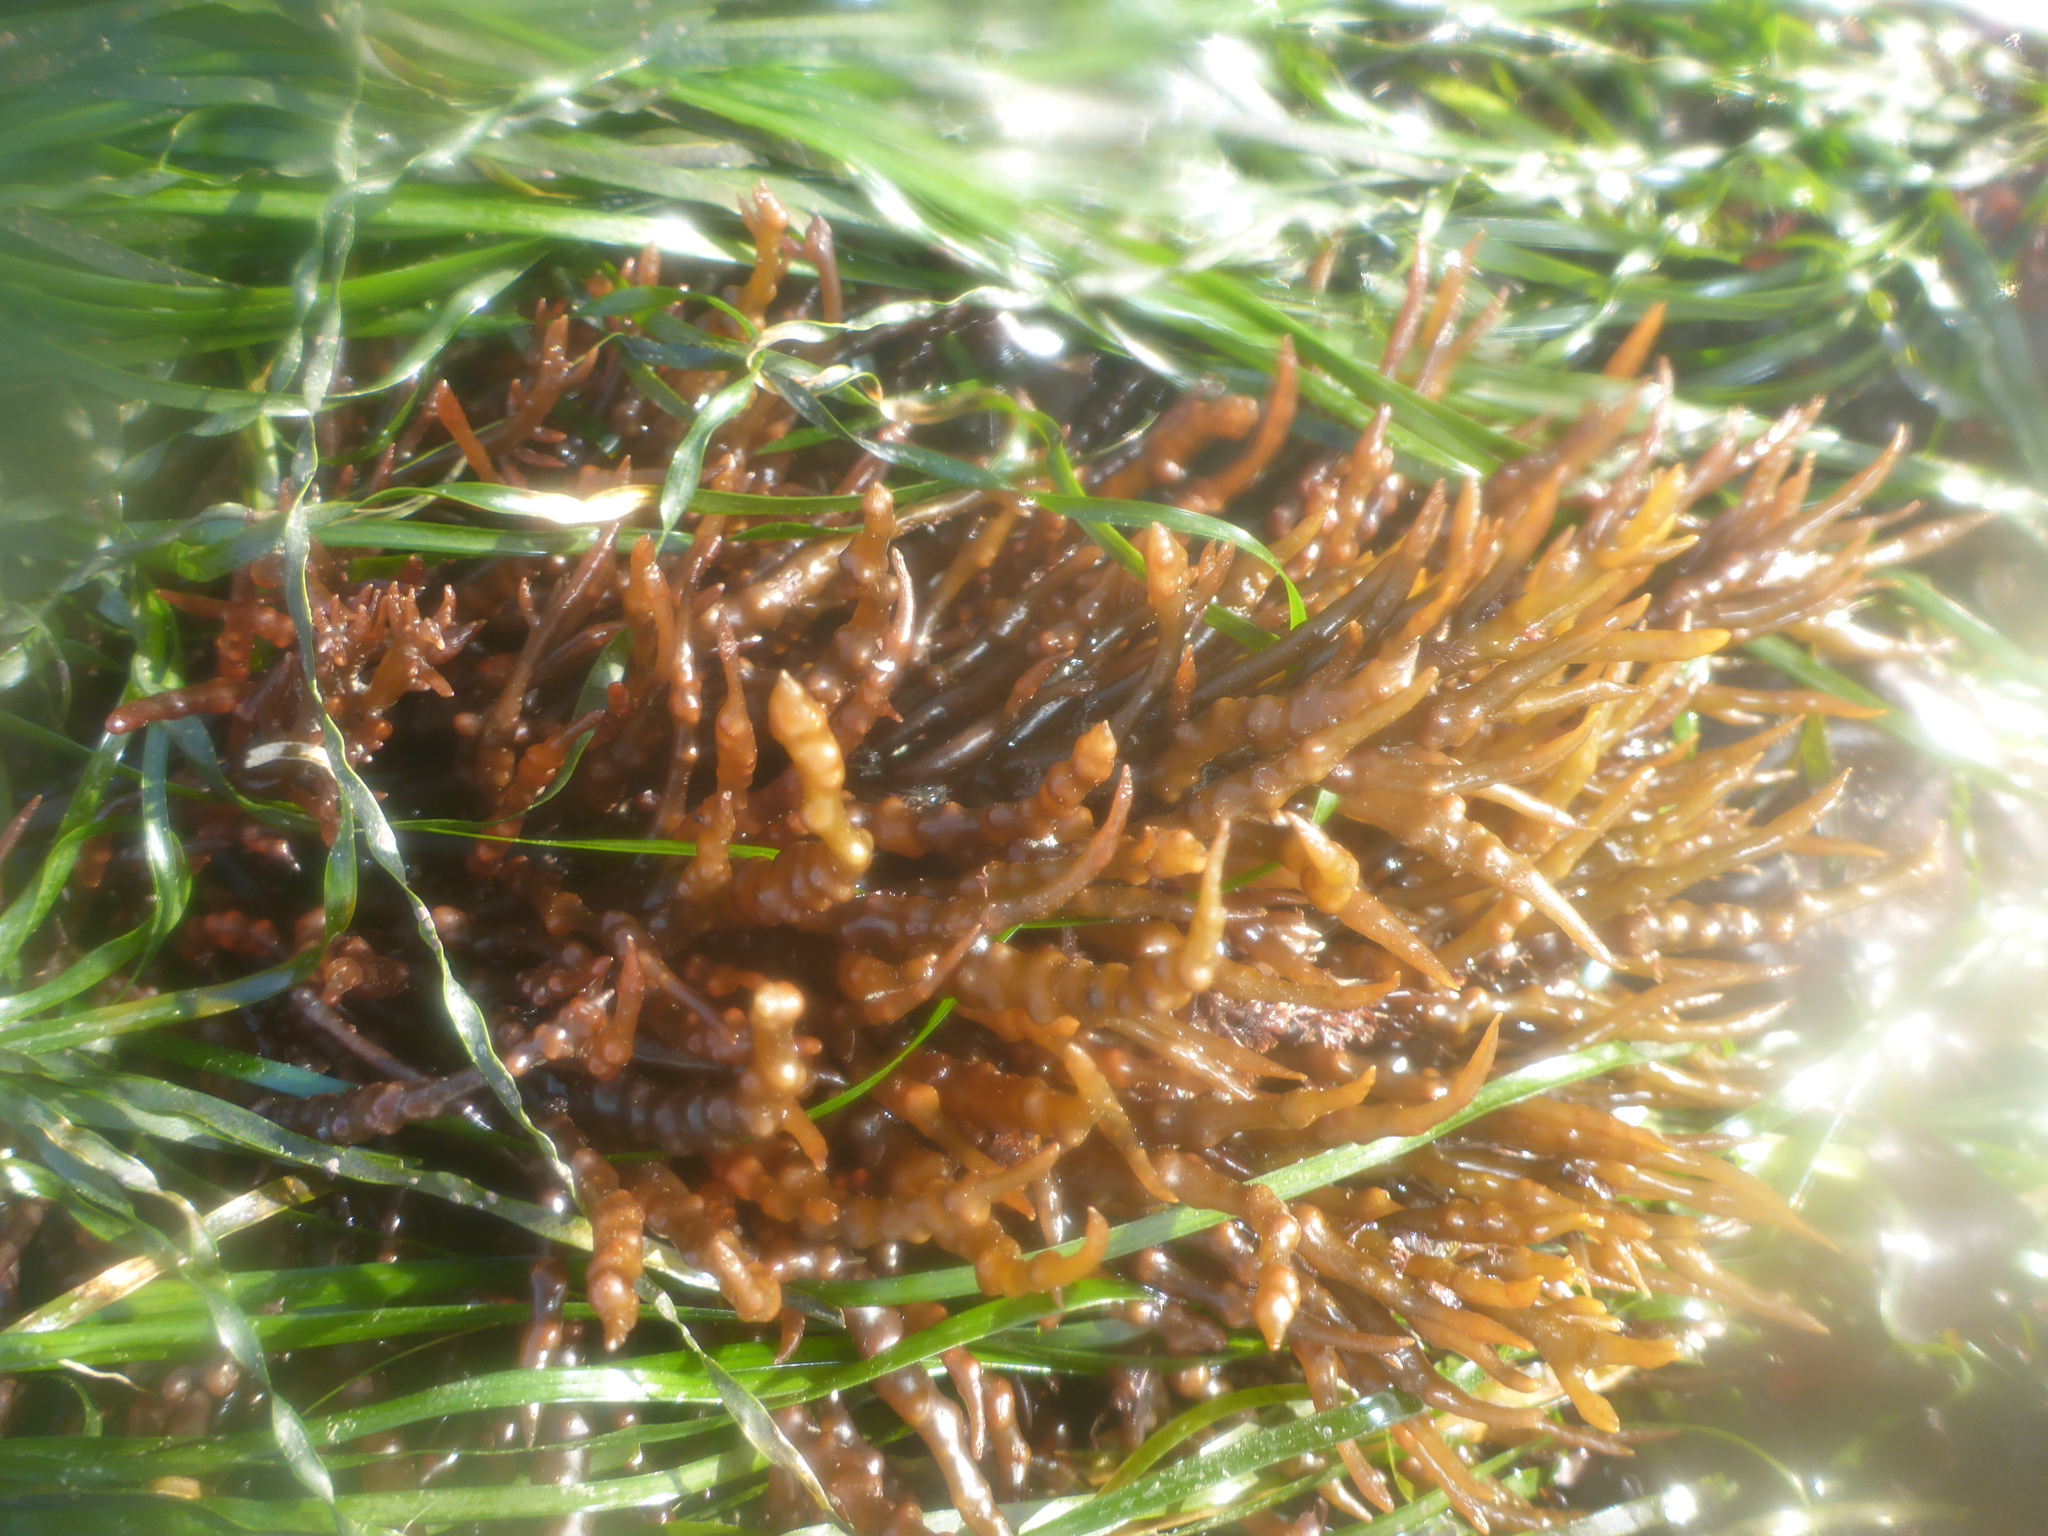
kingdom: Plantae
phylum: Rhodophyta
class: Florideophyceae
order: Gigartinales
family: Solieriaceae
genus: Sarcodiotheca
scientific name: Sarcodiotheca gaudichaudii
